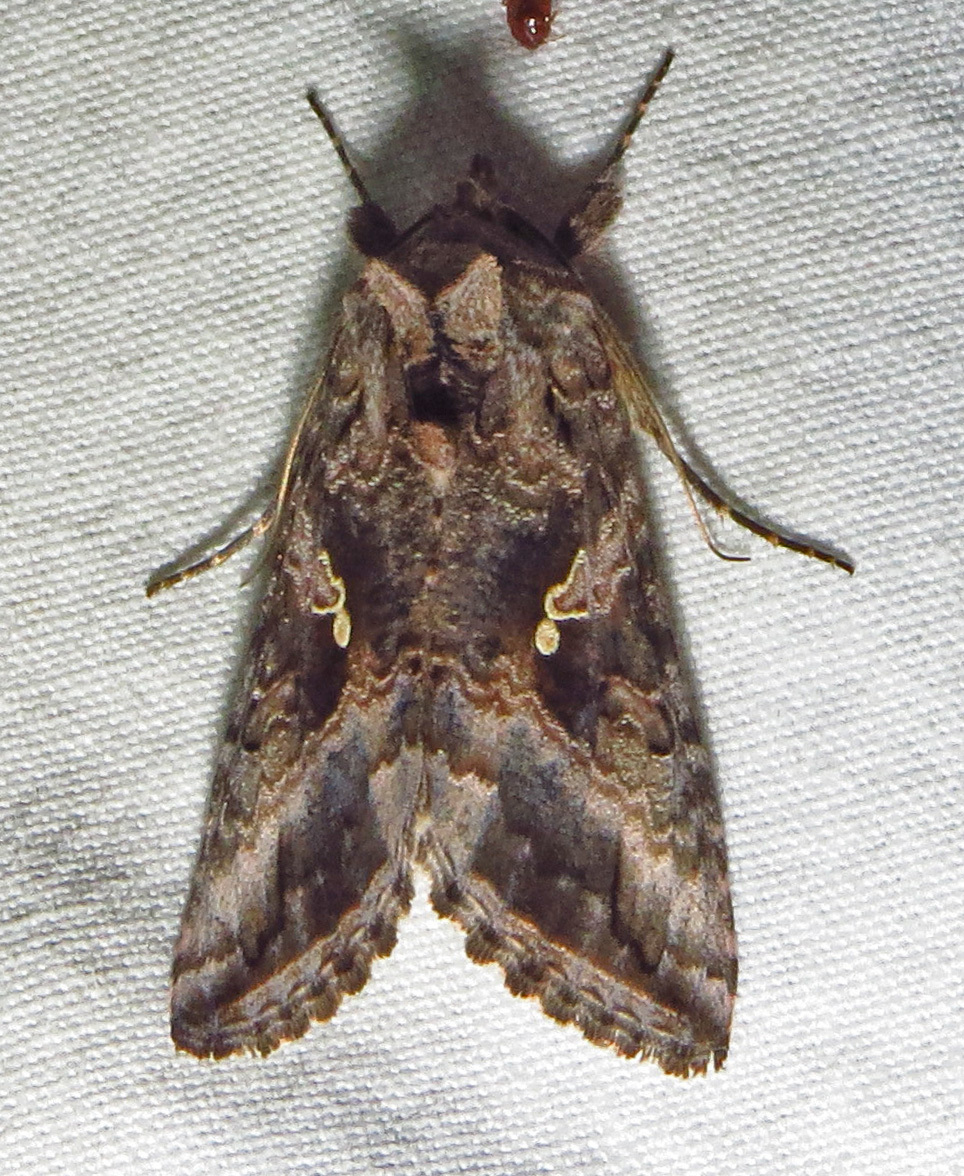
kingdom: Animalia
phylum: Arthropoda
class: Insecta
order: Lepidoptera
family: Noctuidae
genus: Rachiplusia
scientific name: Rachiplusia ou
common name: Gray looper moth
